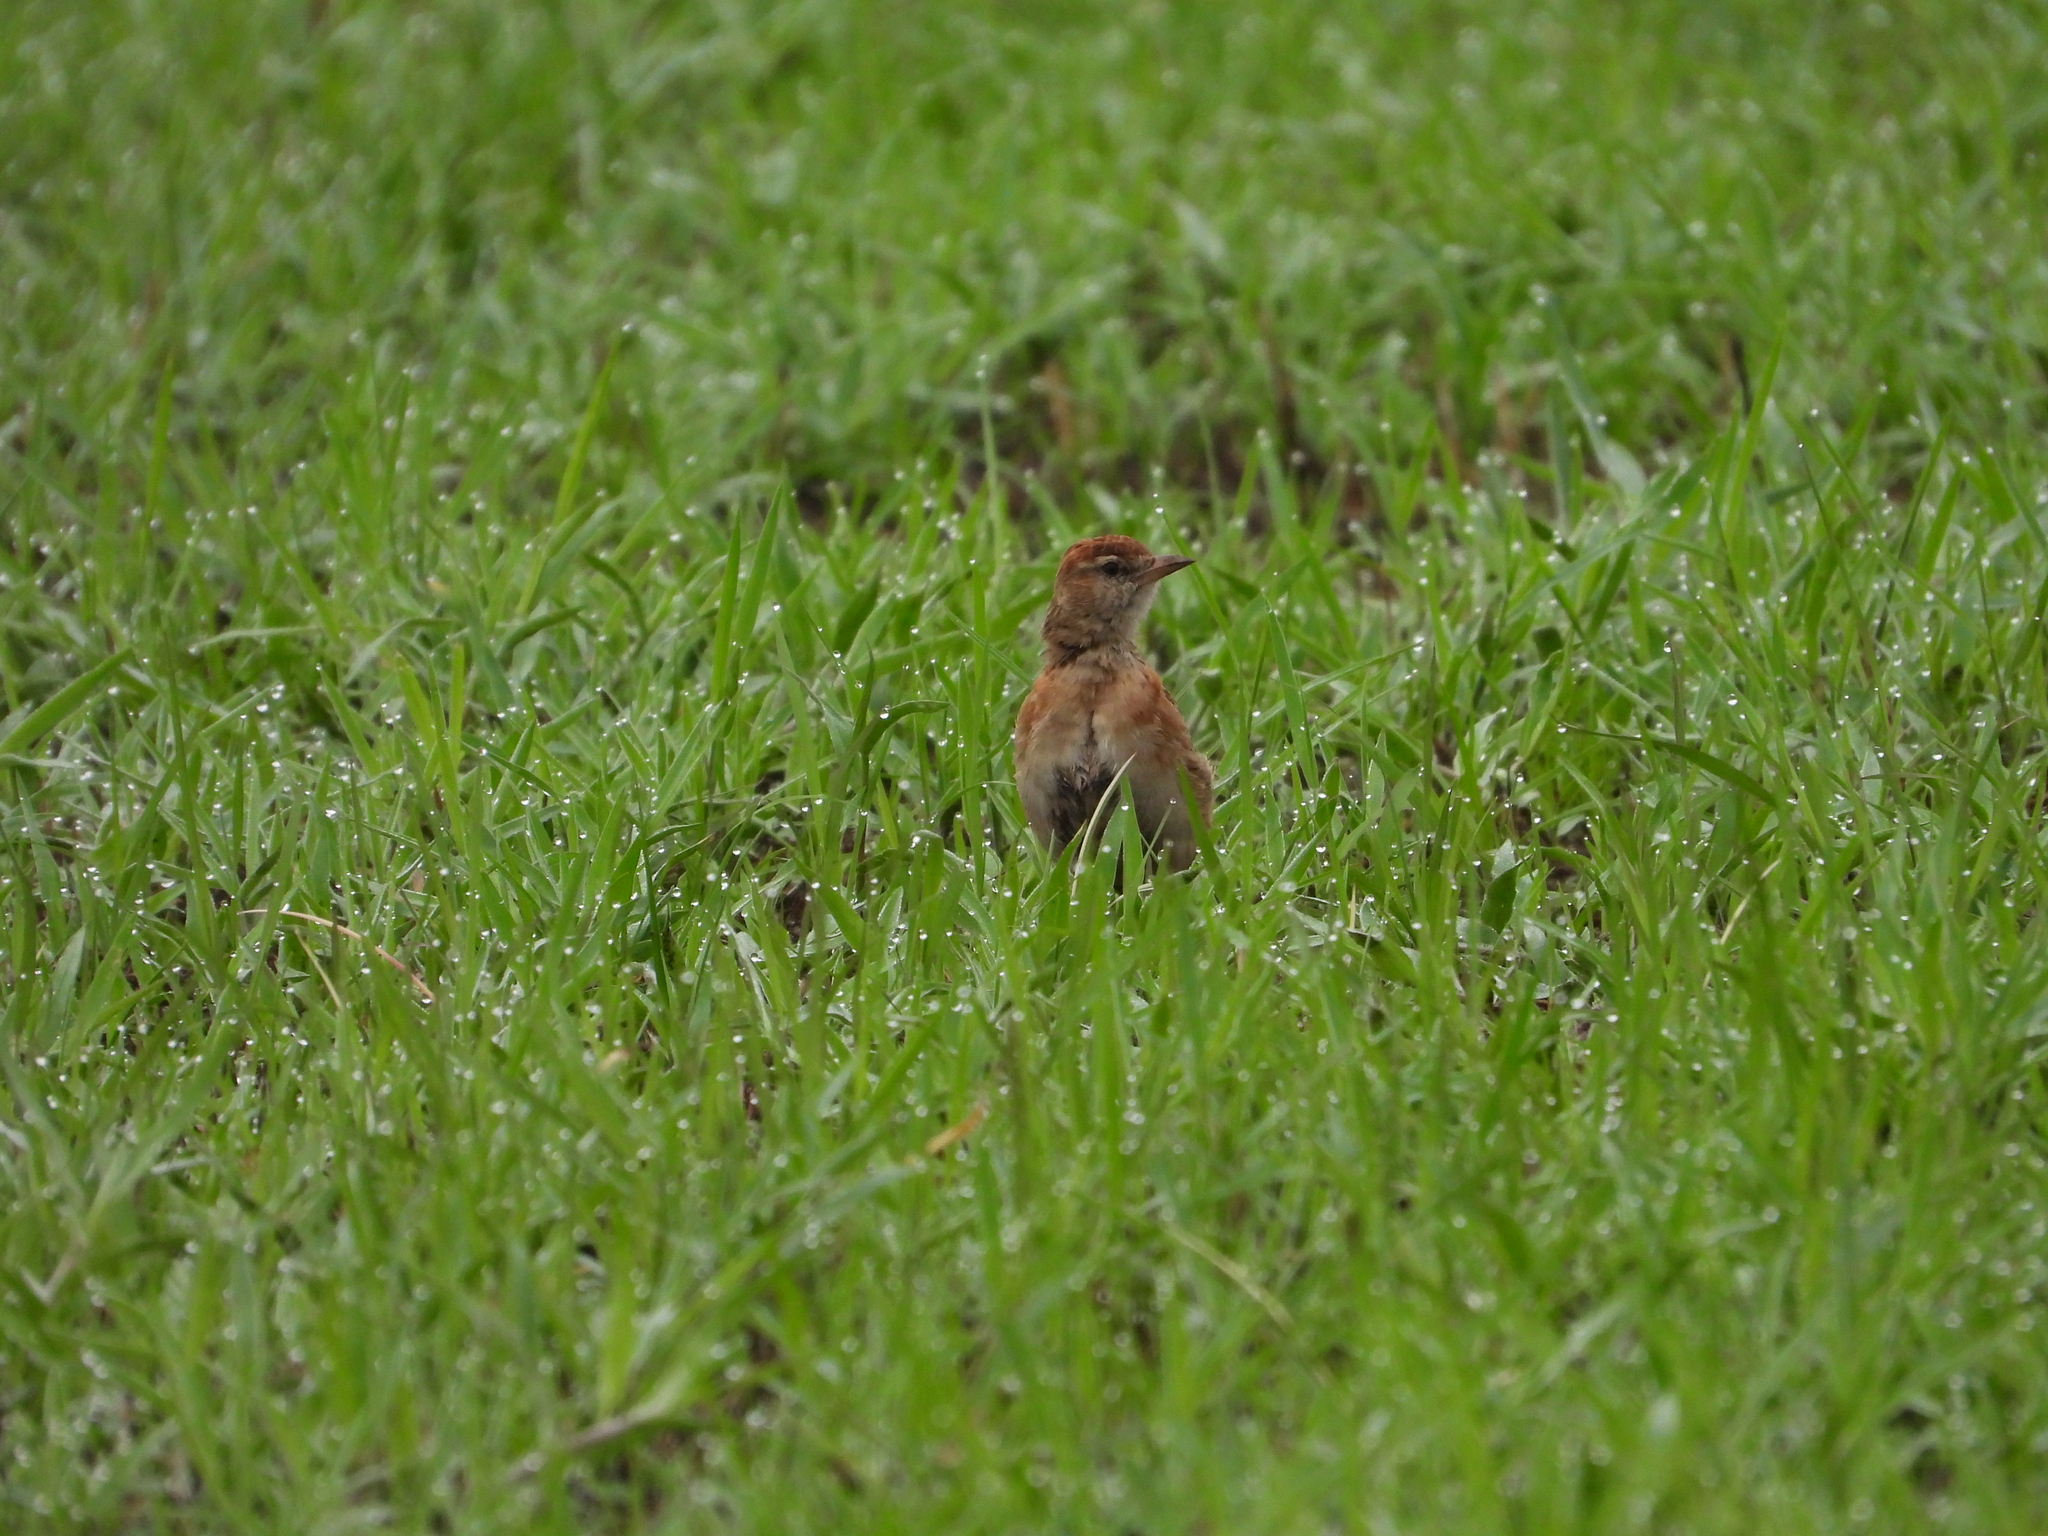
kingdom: Animalia
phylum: Chordata
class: Aves
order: Passeriformes
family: Alaudidae
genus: Calandrella
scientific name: Calandrella cinerea
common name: Red-capped lark
